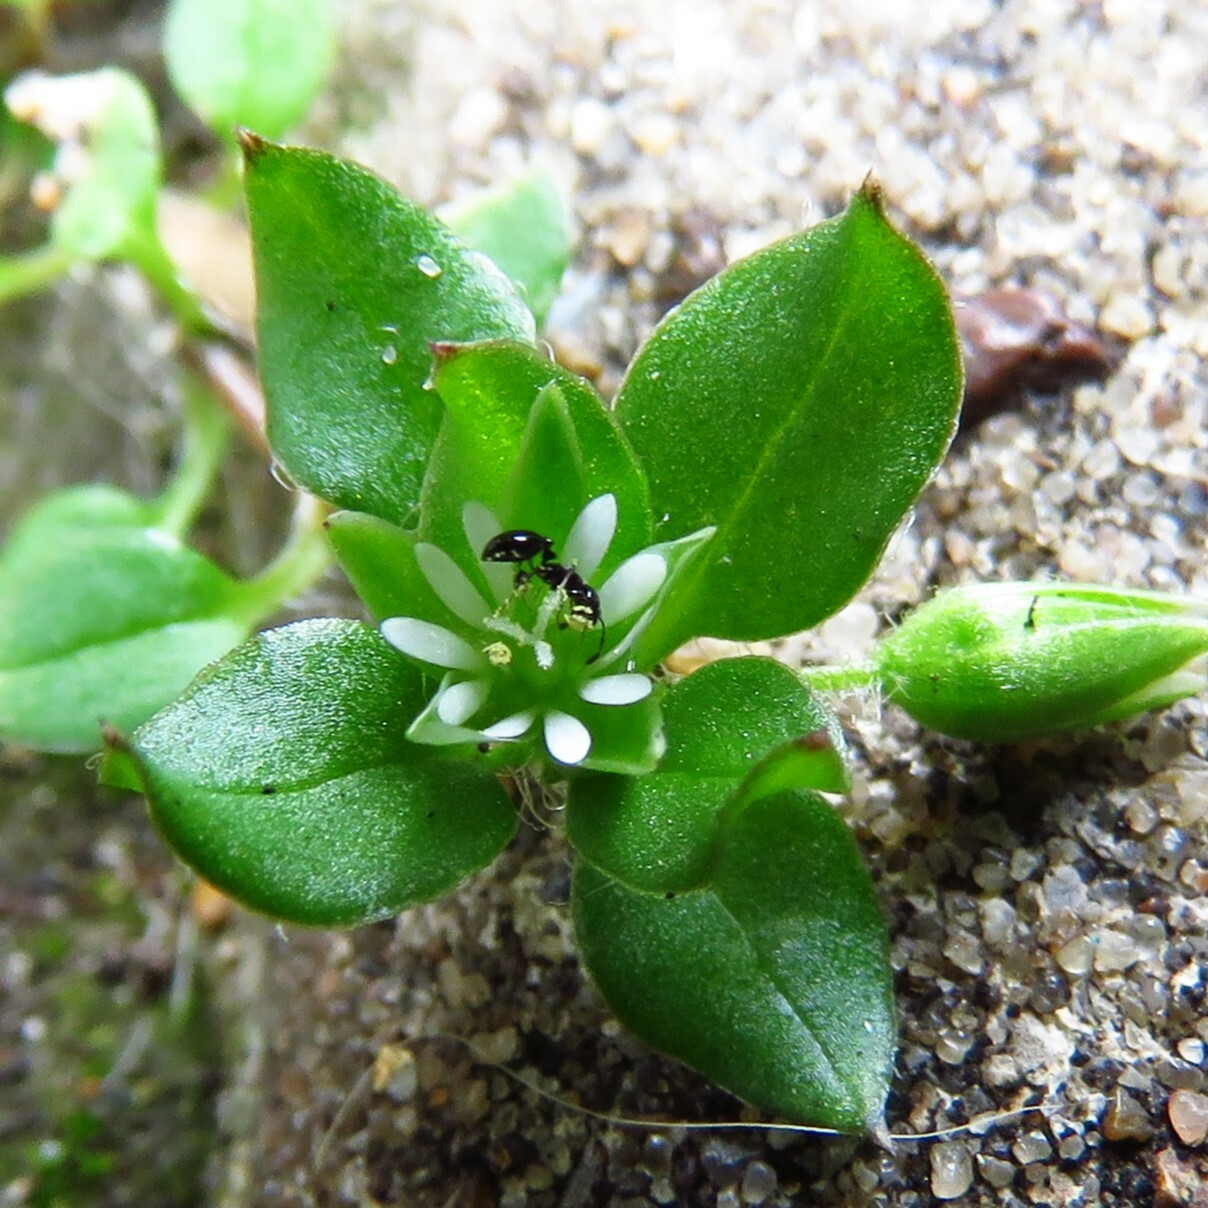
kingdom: Plantae
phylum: Tracheophyta
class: Magnoliopsida
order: Caryophyllales
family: Caryophyllaceae
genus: Stellaria
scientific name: Stellaria media
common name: Common chickweed
